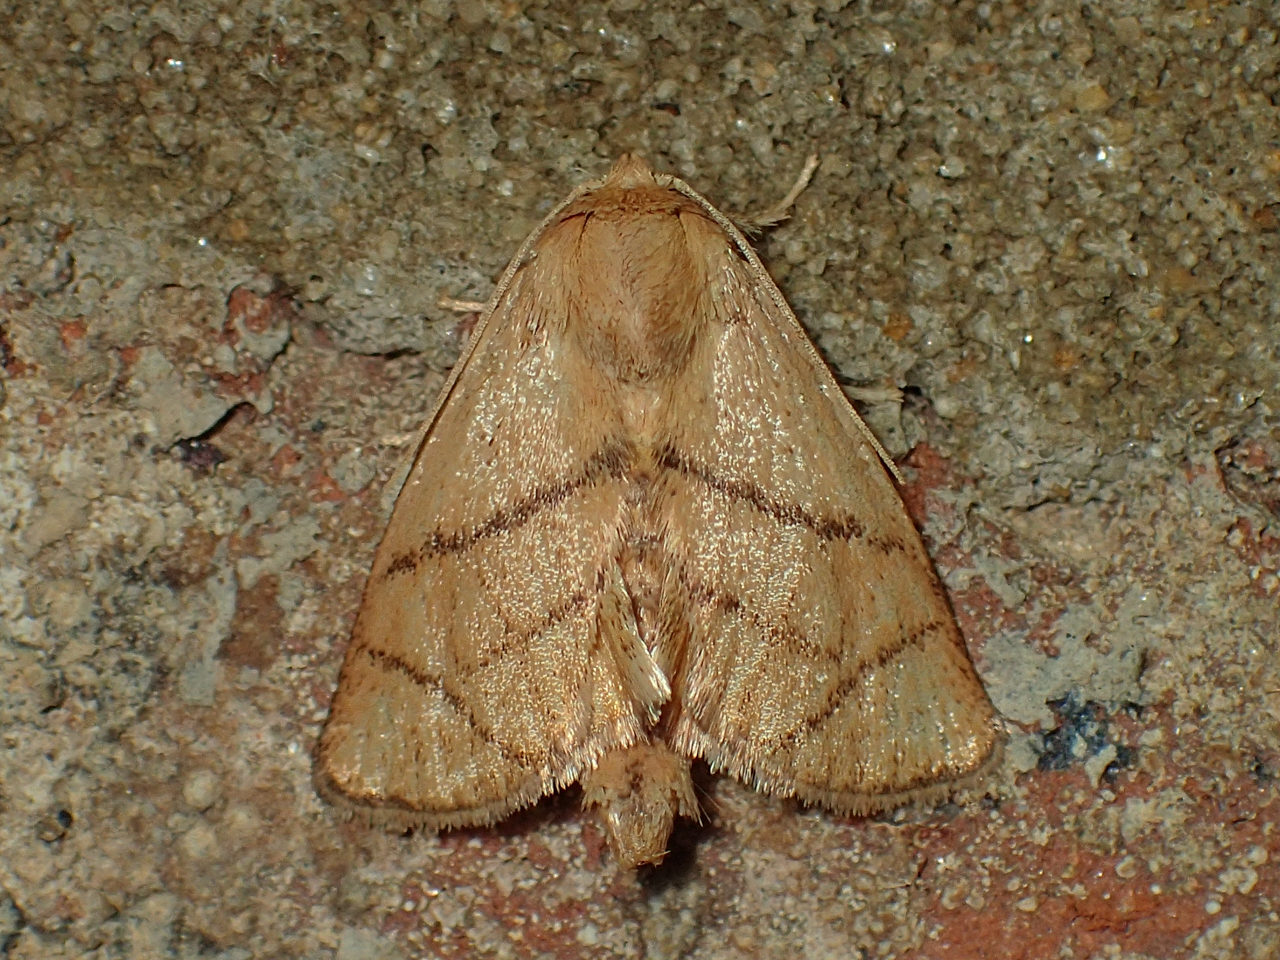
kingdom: Animalia
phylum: Arthropoda
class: Insecta
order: Lepidoptera
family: Limacodidae
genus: Apoda
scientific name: Apoda y-inversa
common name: Yellow-collared slug moth
